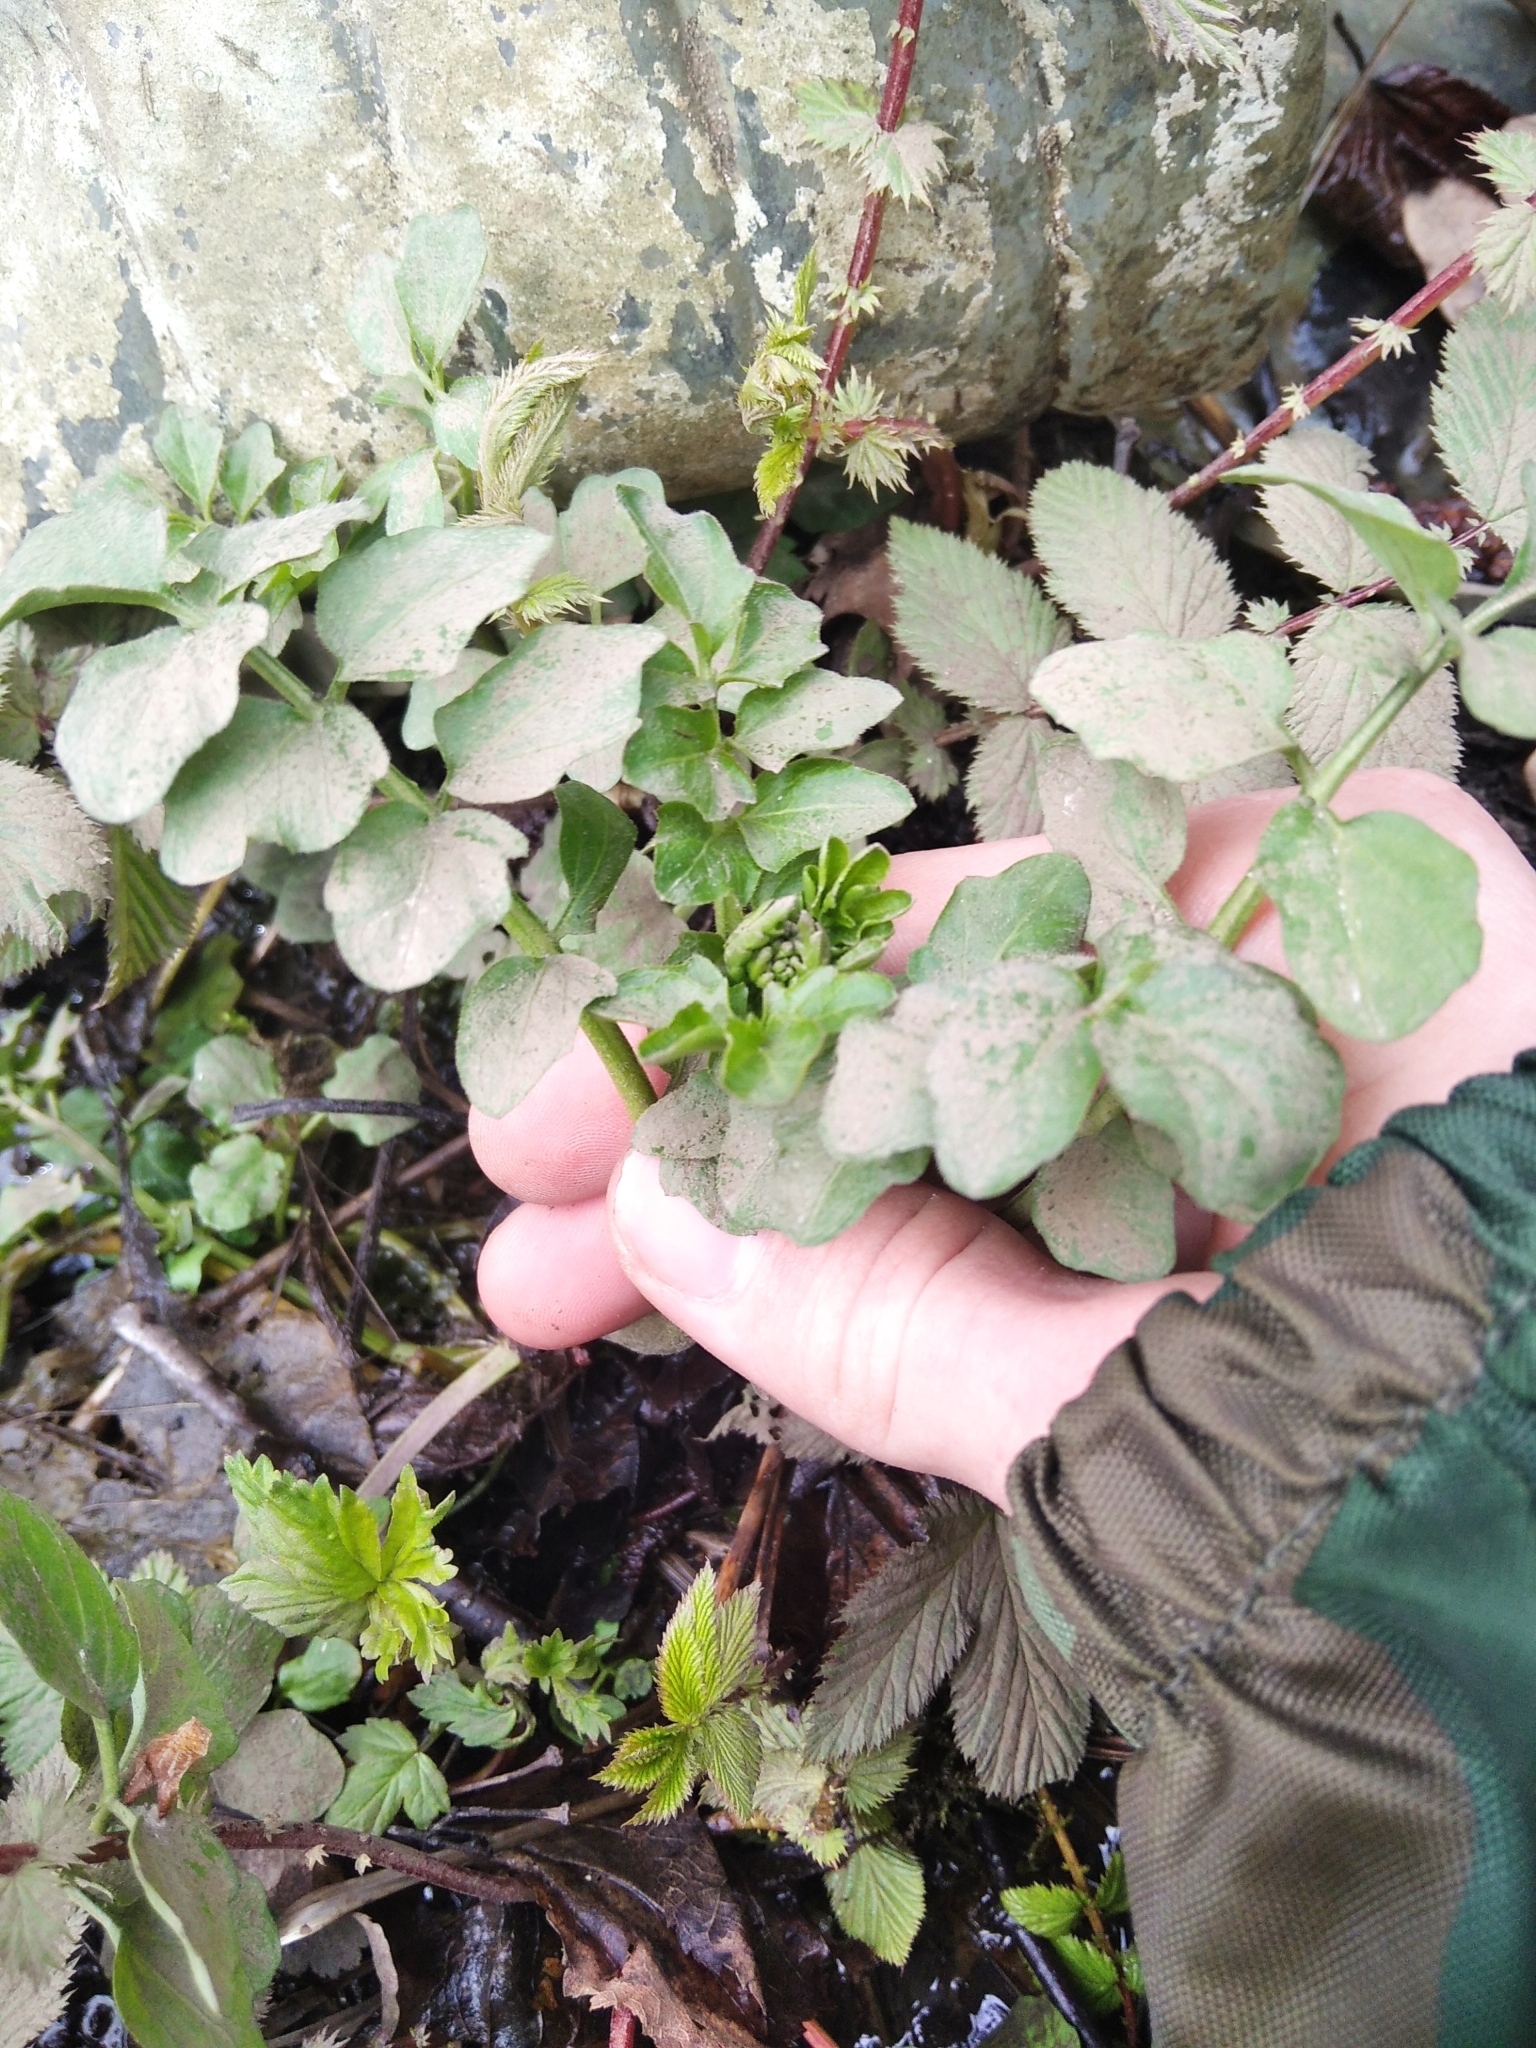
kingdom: Plantae
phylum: Tracheophyta
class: Magnoliopsida
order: Brassicales
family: Brassicaceae
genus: Cardamine
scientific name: Cardamine amara
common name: Large bitter-cress
